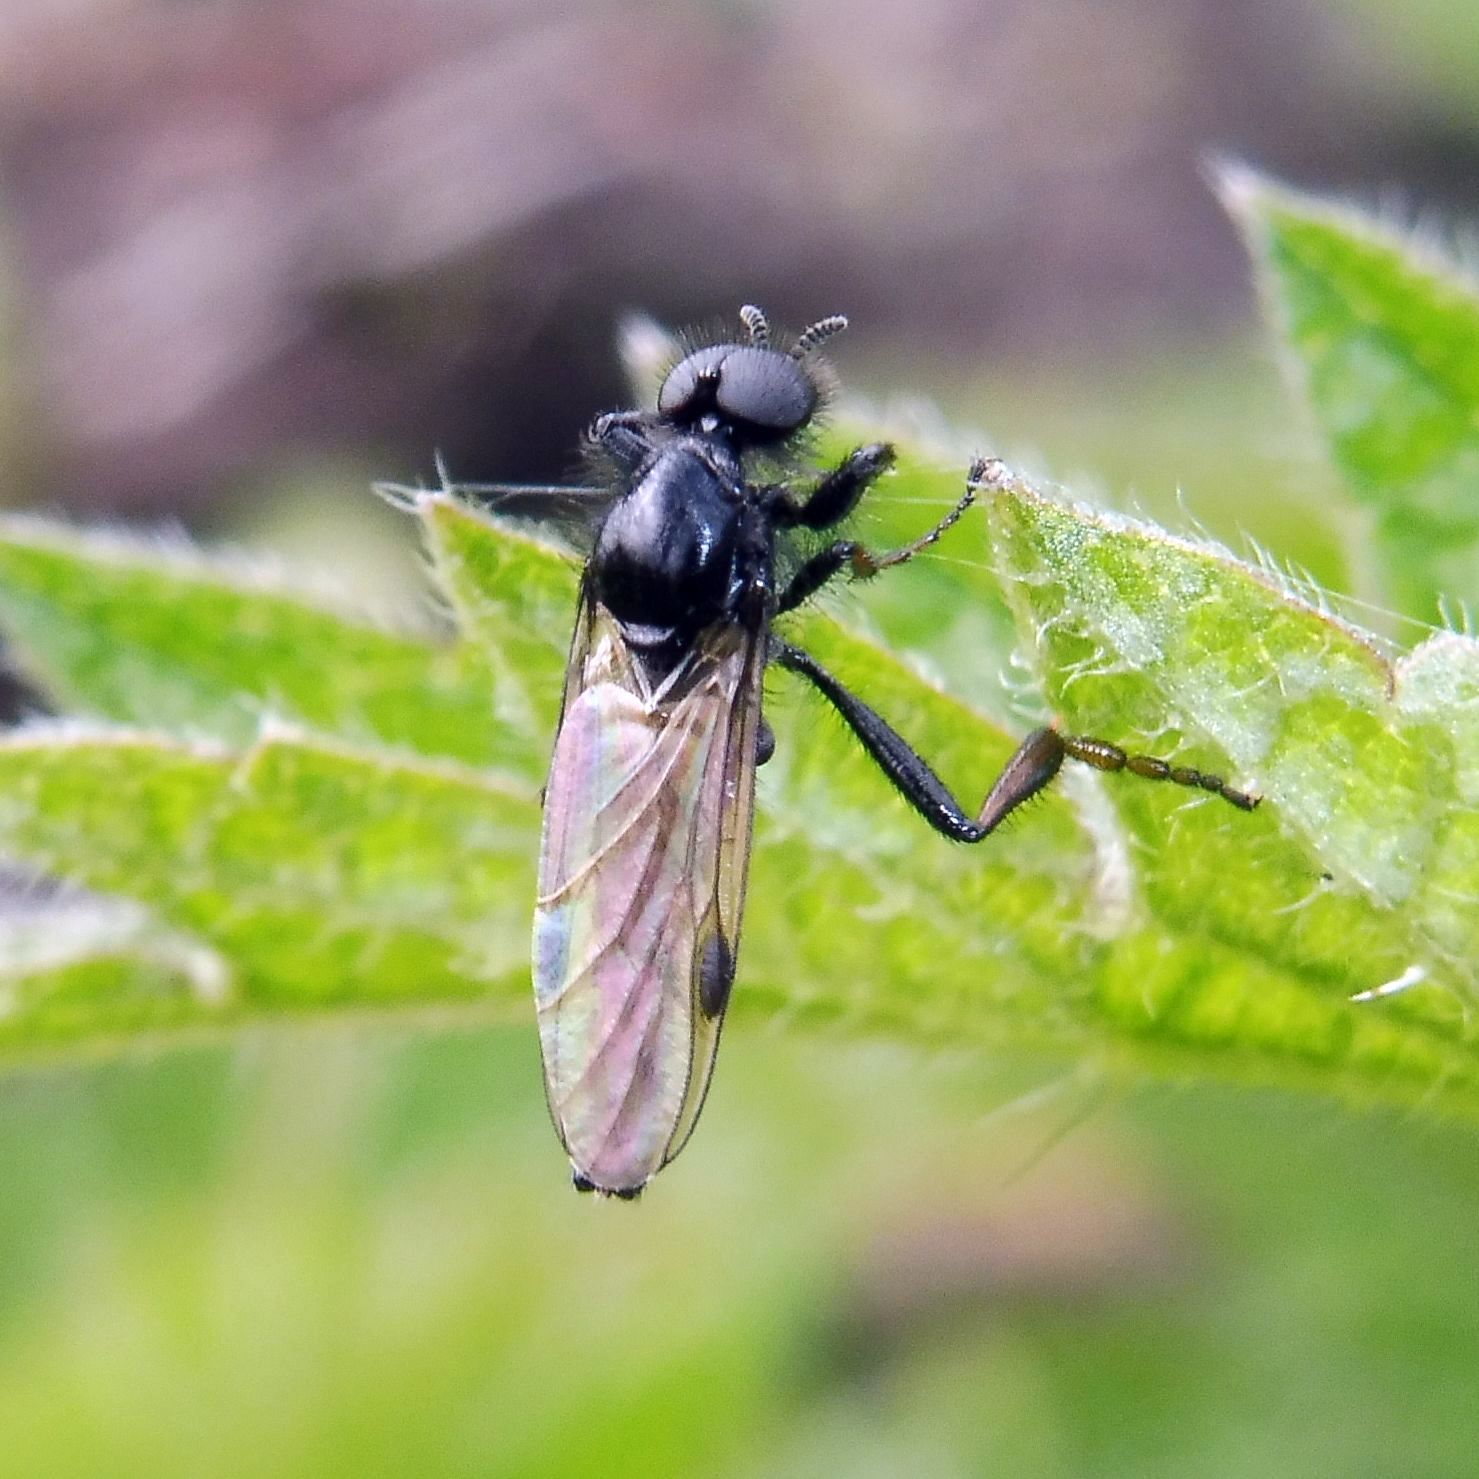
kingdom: Animalia
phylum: Arthropoda
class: Insecta
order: Diptera
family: Bibionidae
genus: Bibio
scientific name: Bibio johannis
